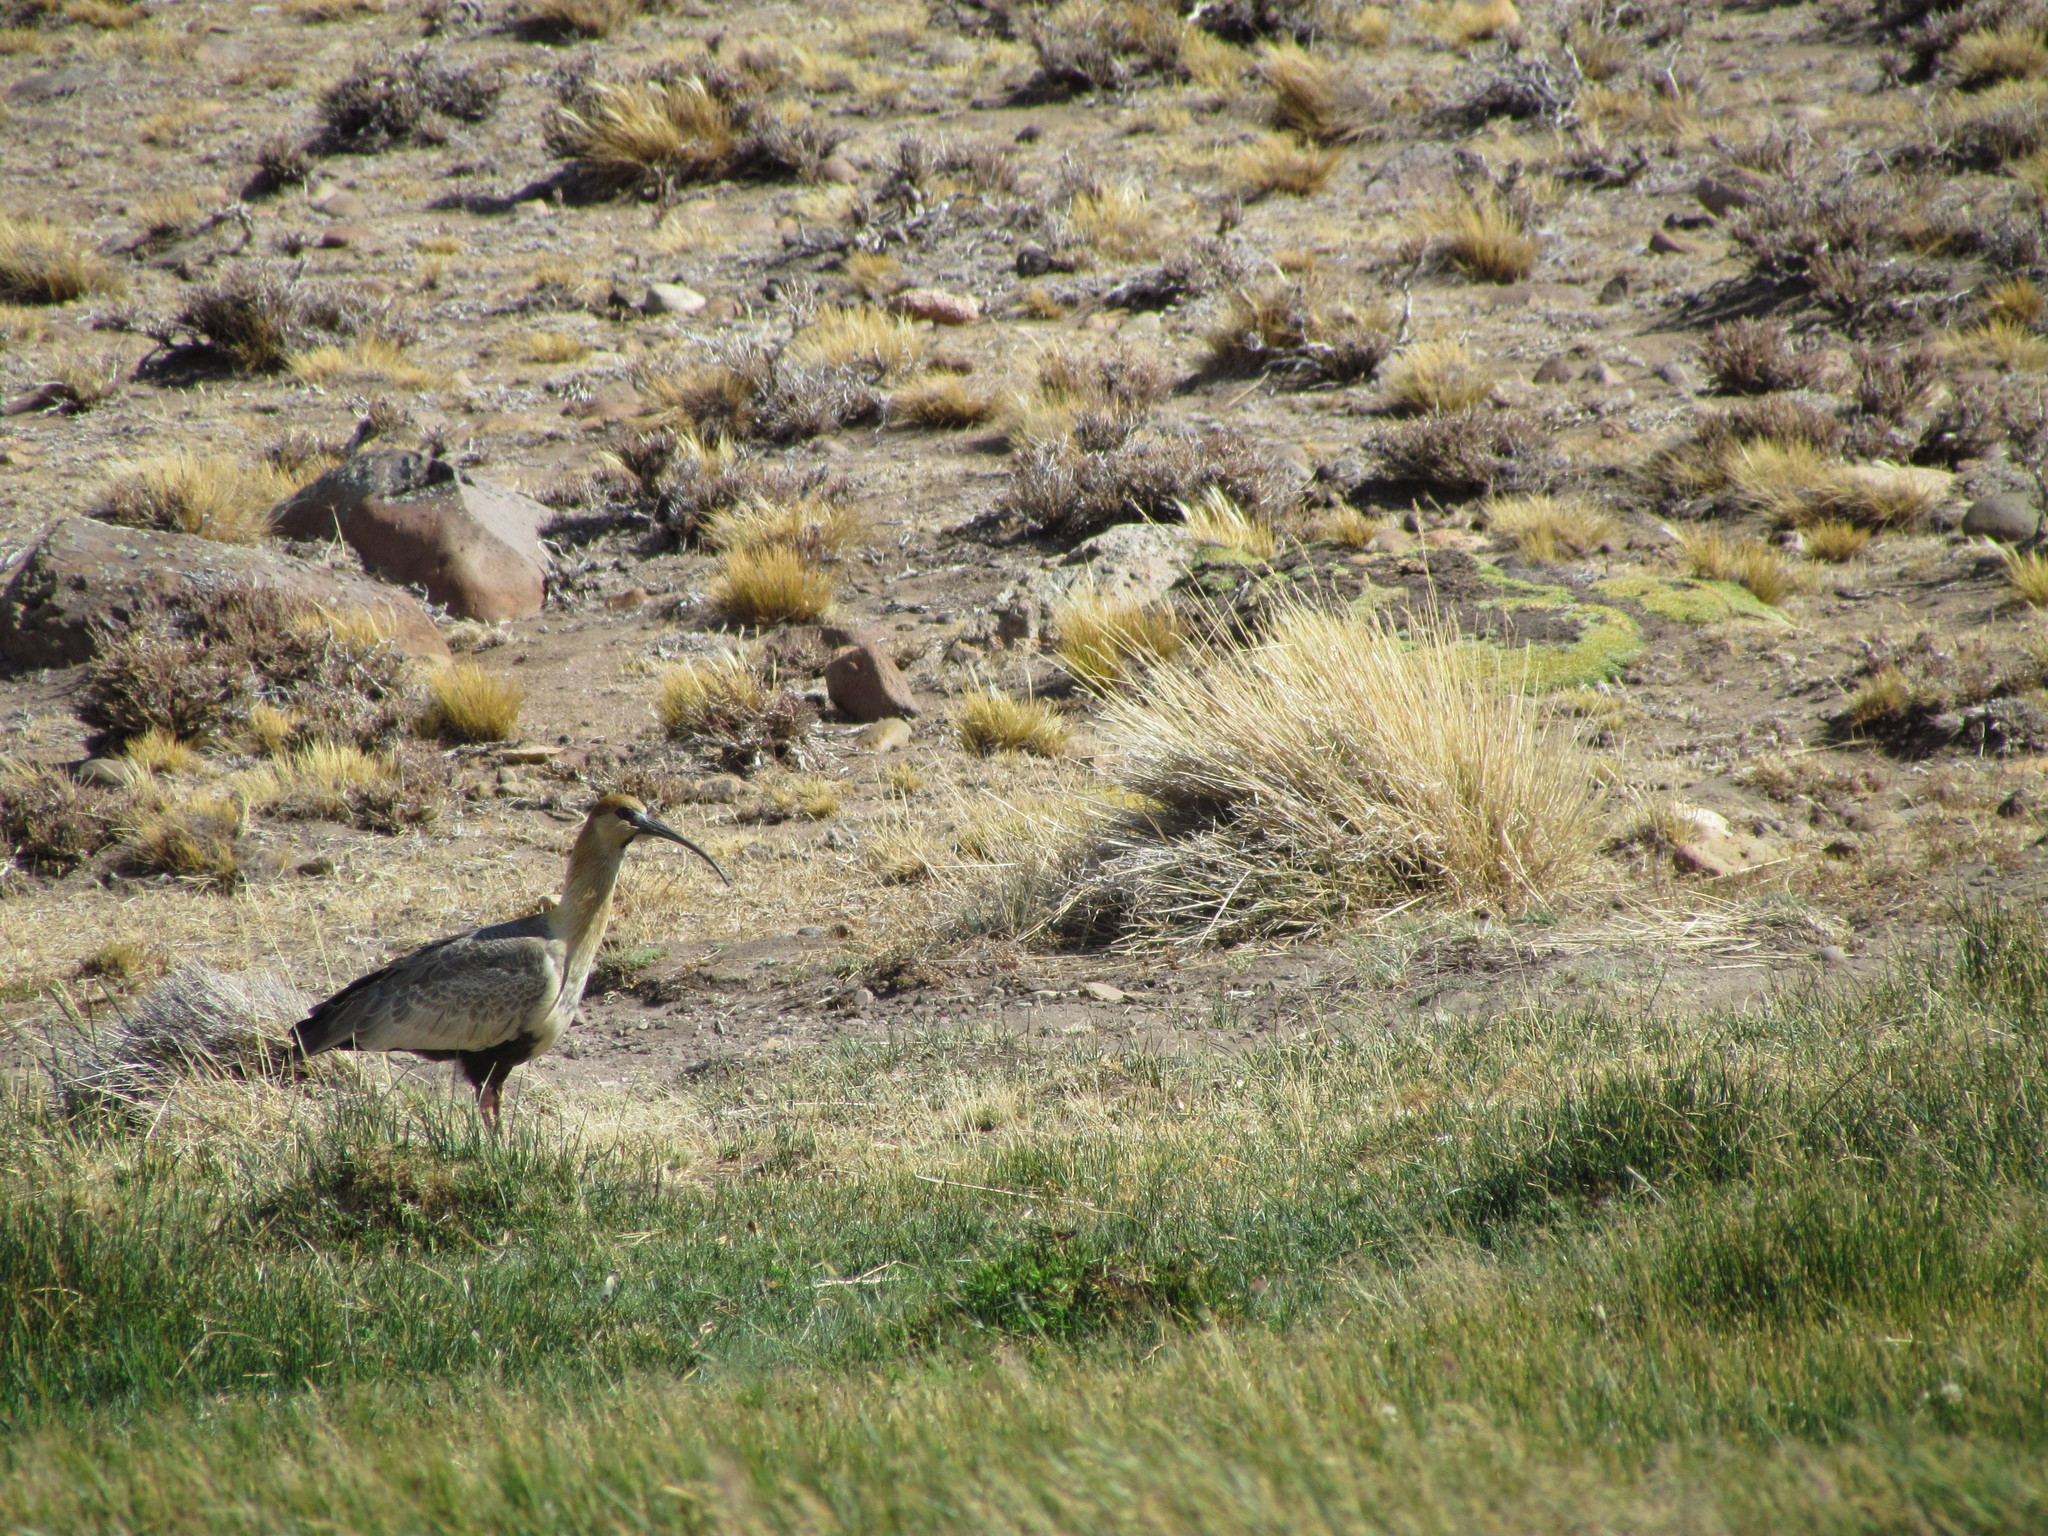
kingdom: Animalia
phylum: Chordata
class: Aves
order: Pelecaniformes
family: Threskiornithidae
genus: Theristicus
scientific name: Theristicus melanopis
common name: Black-faced ibis
